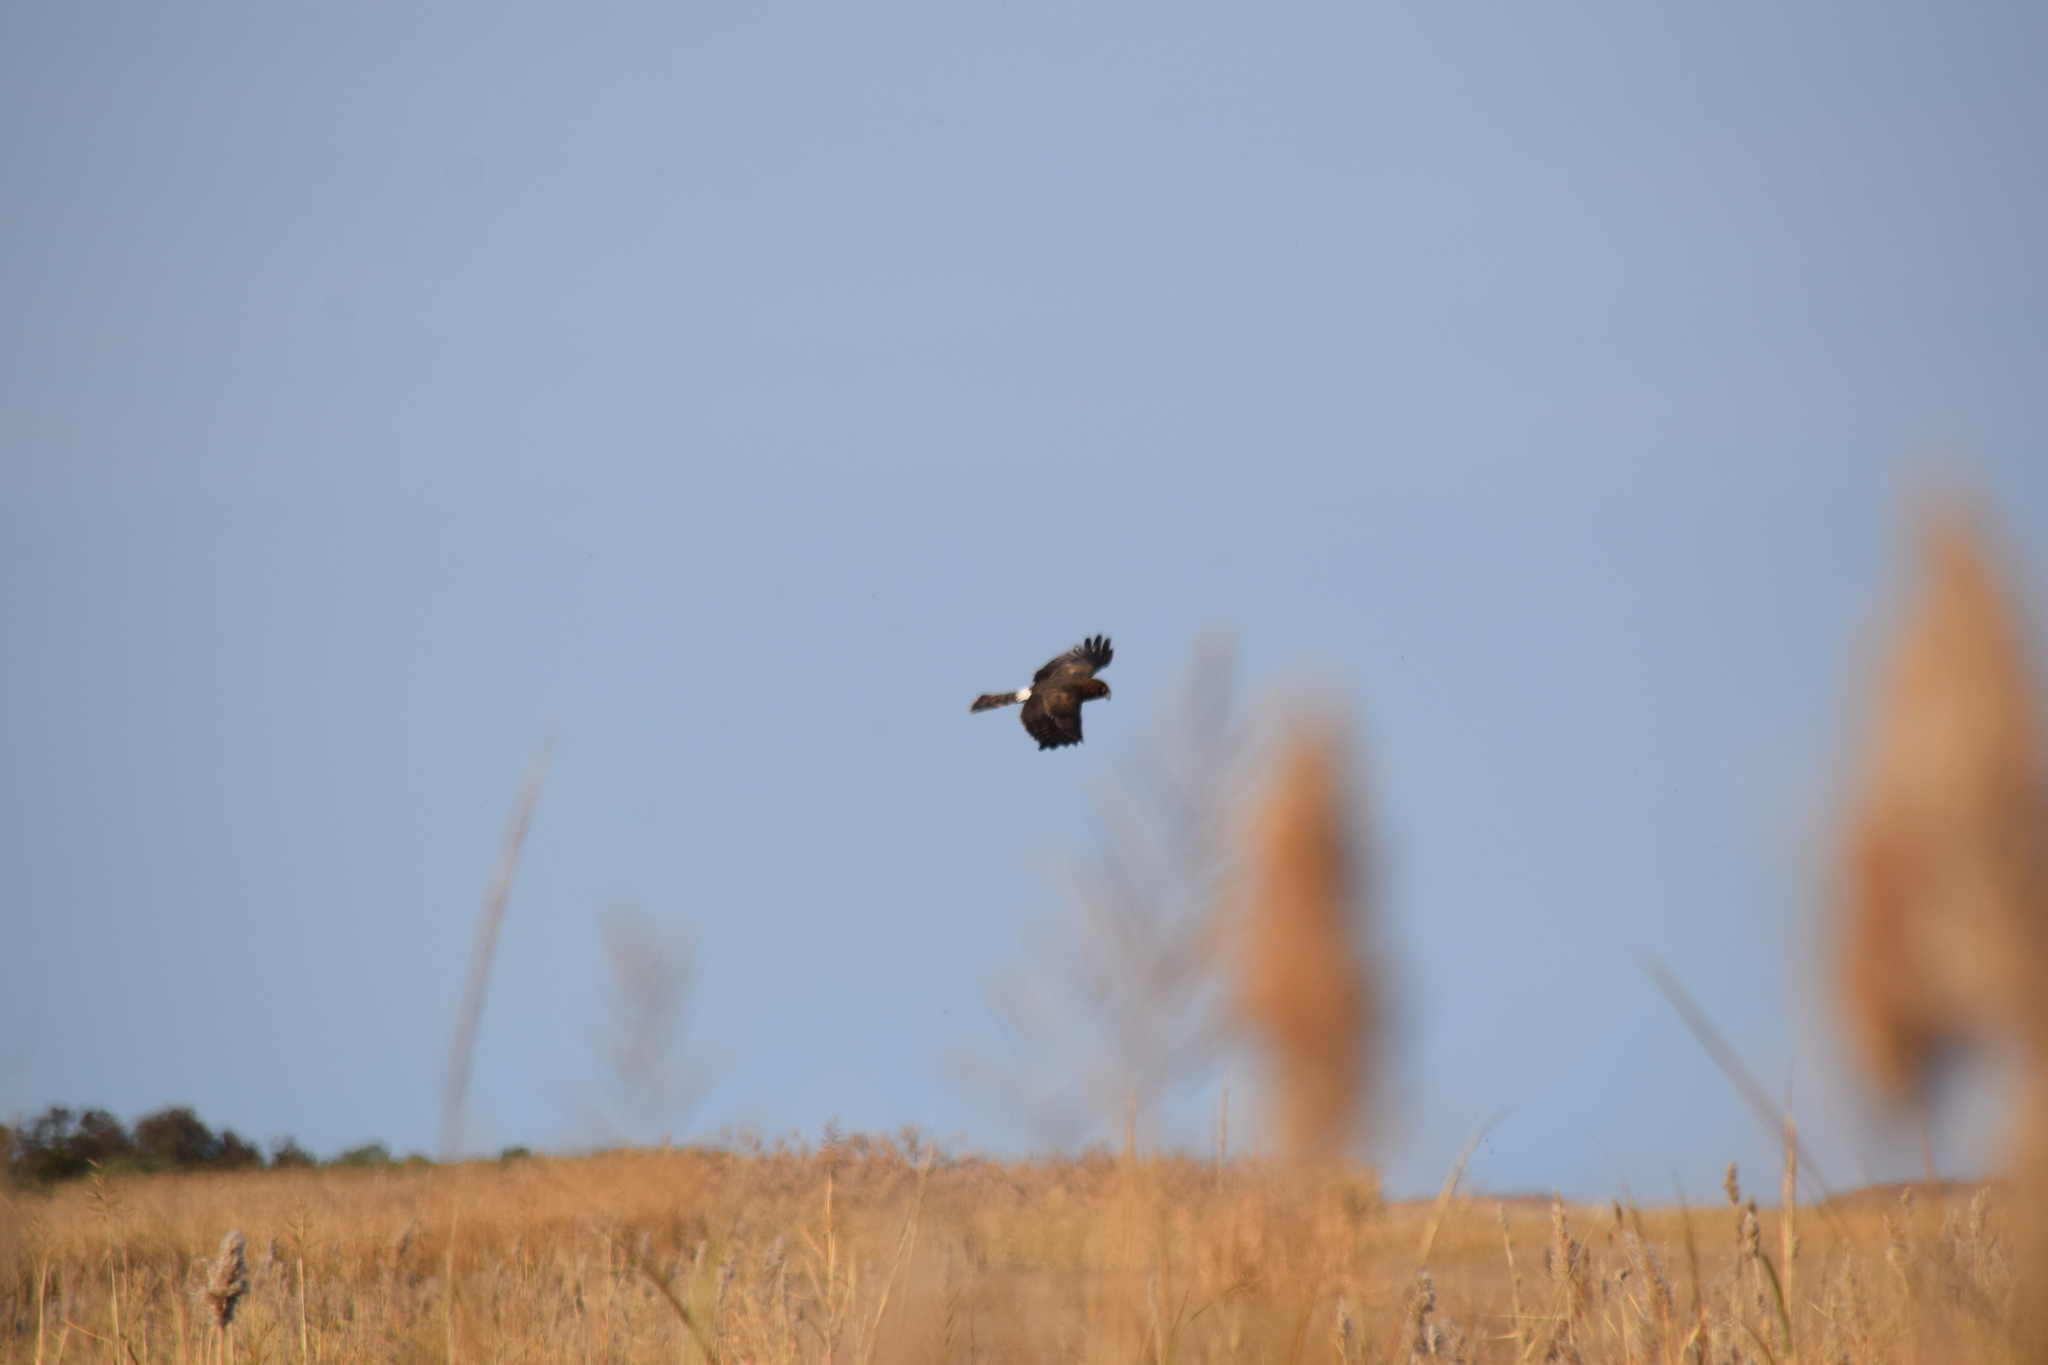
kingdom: Animalia
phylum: Chordata
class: Aves
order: Accipitriformes
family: Accipitridae
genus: Circus
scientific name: Circus cyaneus
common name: Hen harrier
